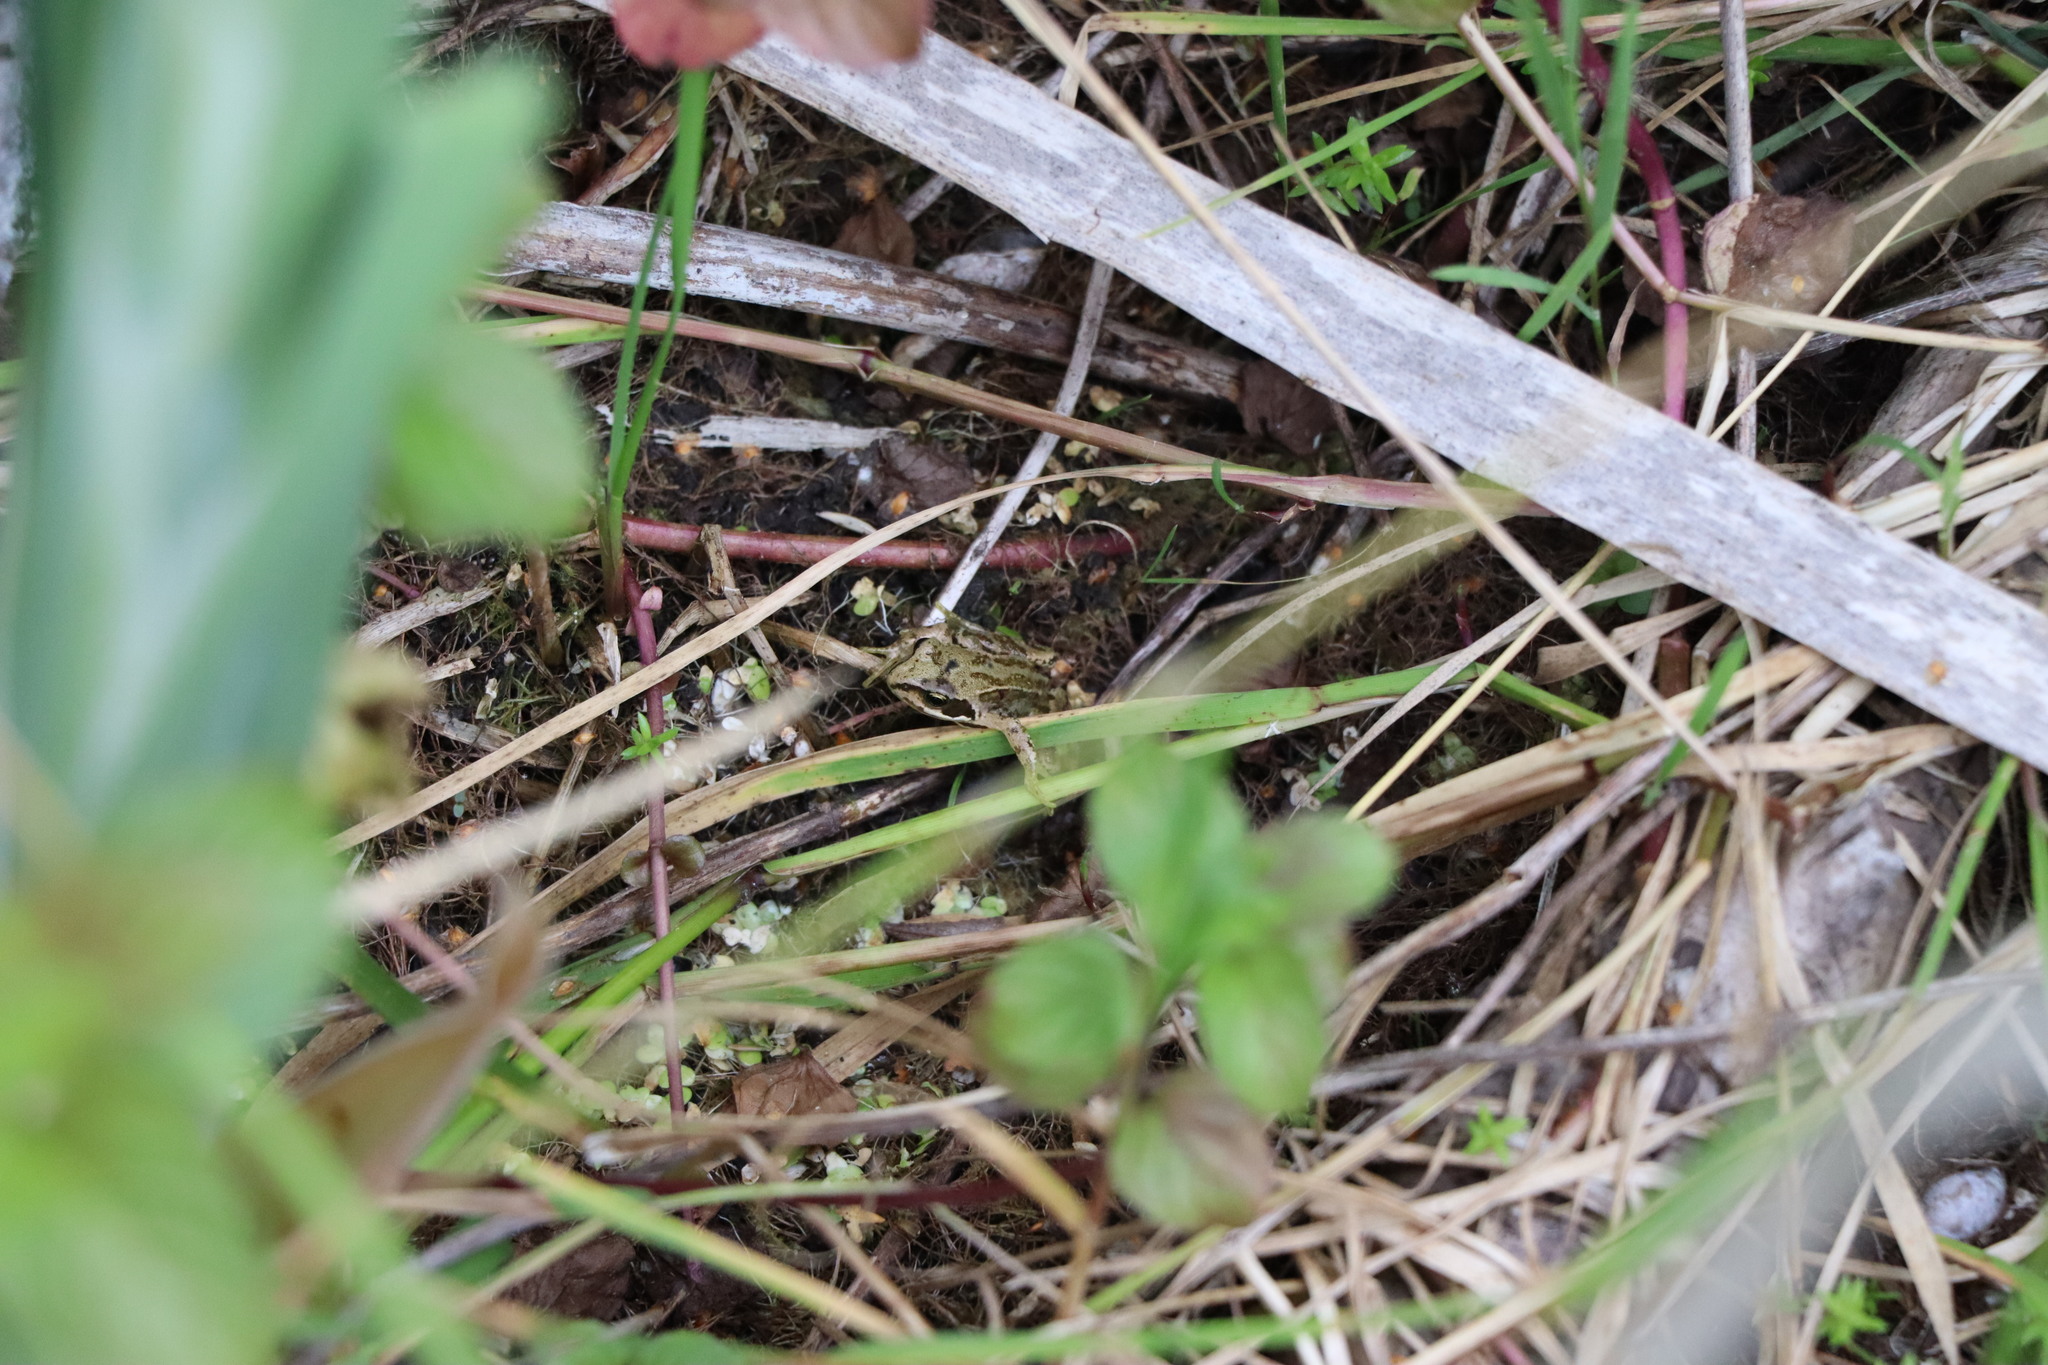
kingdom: Animalia
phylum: Chordata
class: Amphibia
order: Anura
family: Ranidae
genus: Rana
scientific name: Rana temporaria
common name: Common frog
